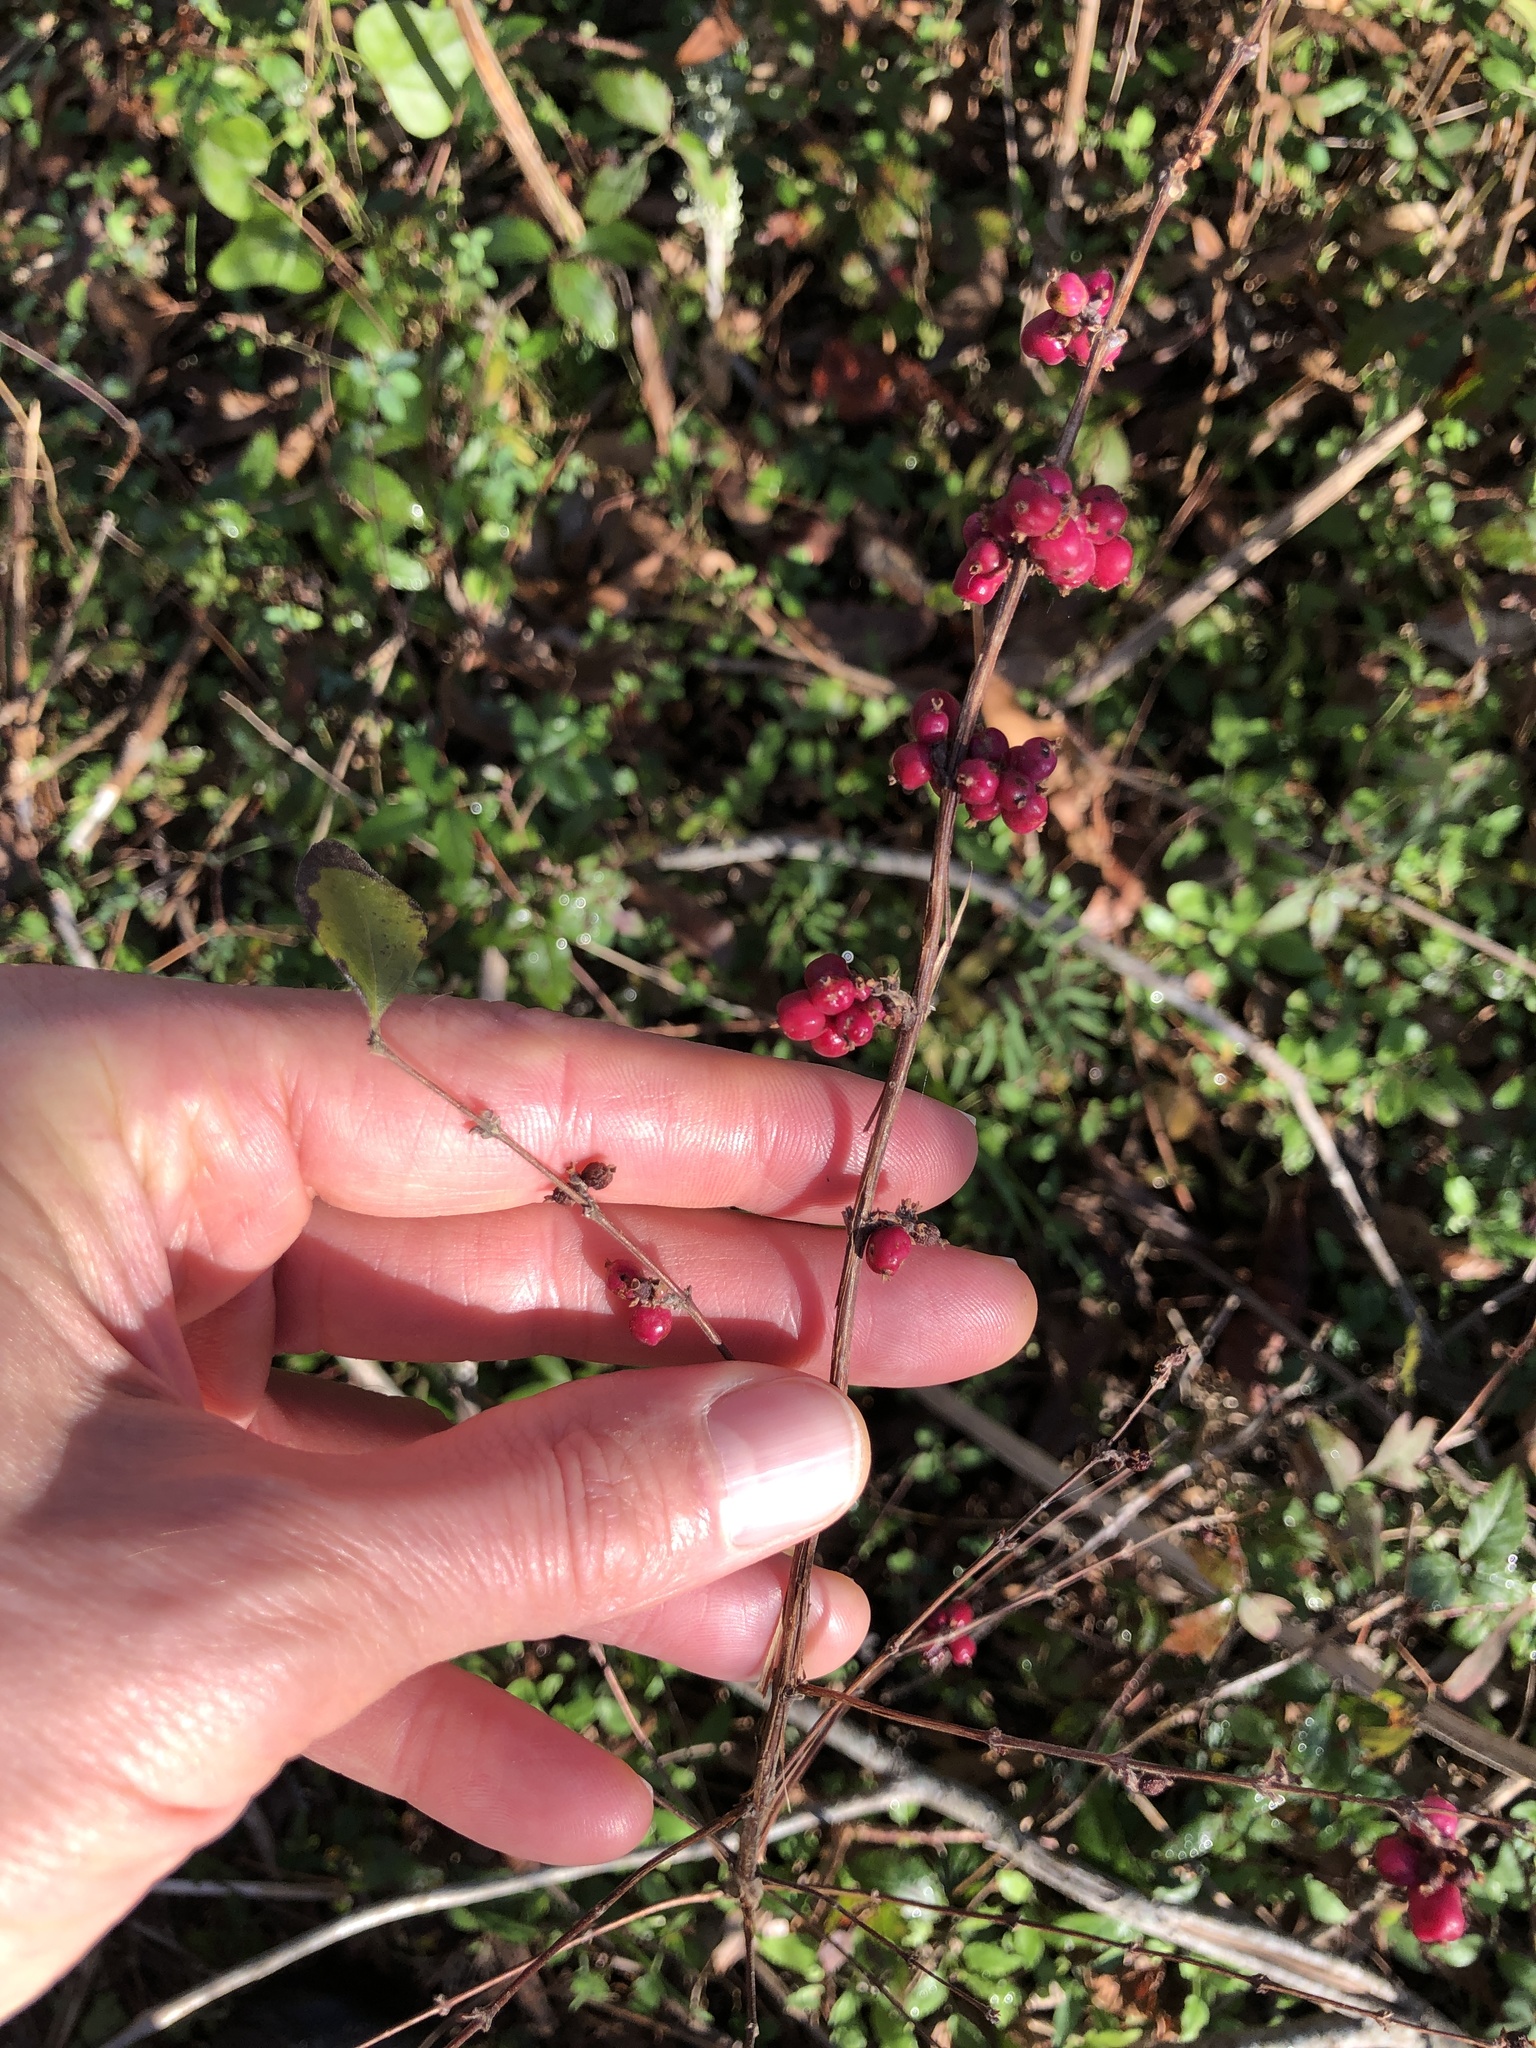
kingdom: Plantae
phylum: Tracheophyta
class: Magnoliopsida
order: Dipsacales
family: Caprifoliaceae
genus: Symphoricarpos
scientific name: Symphoricarpos orbiculatus
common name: Coralberry
